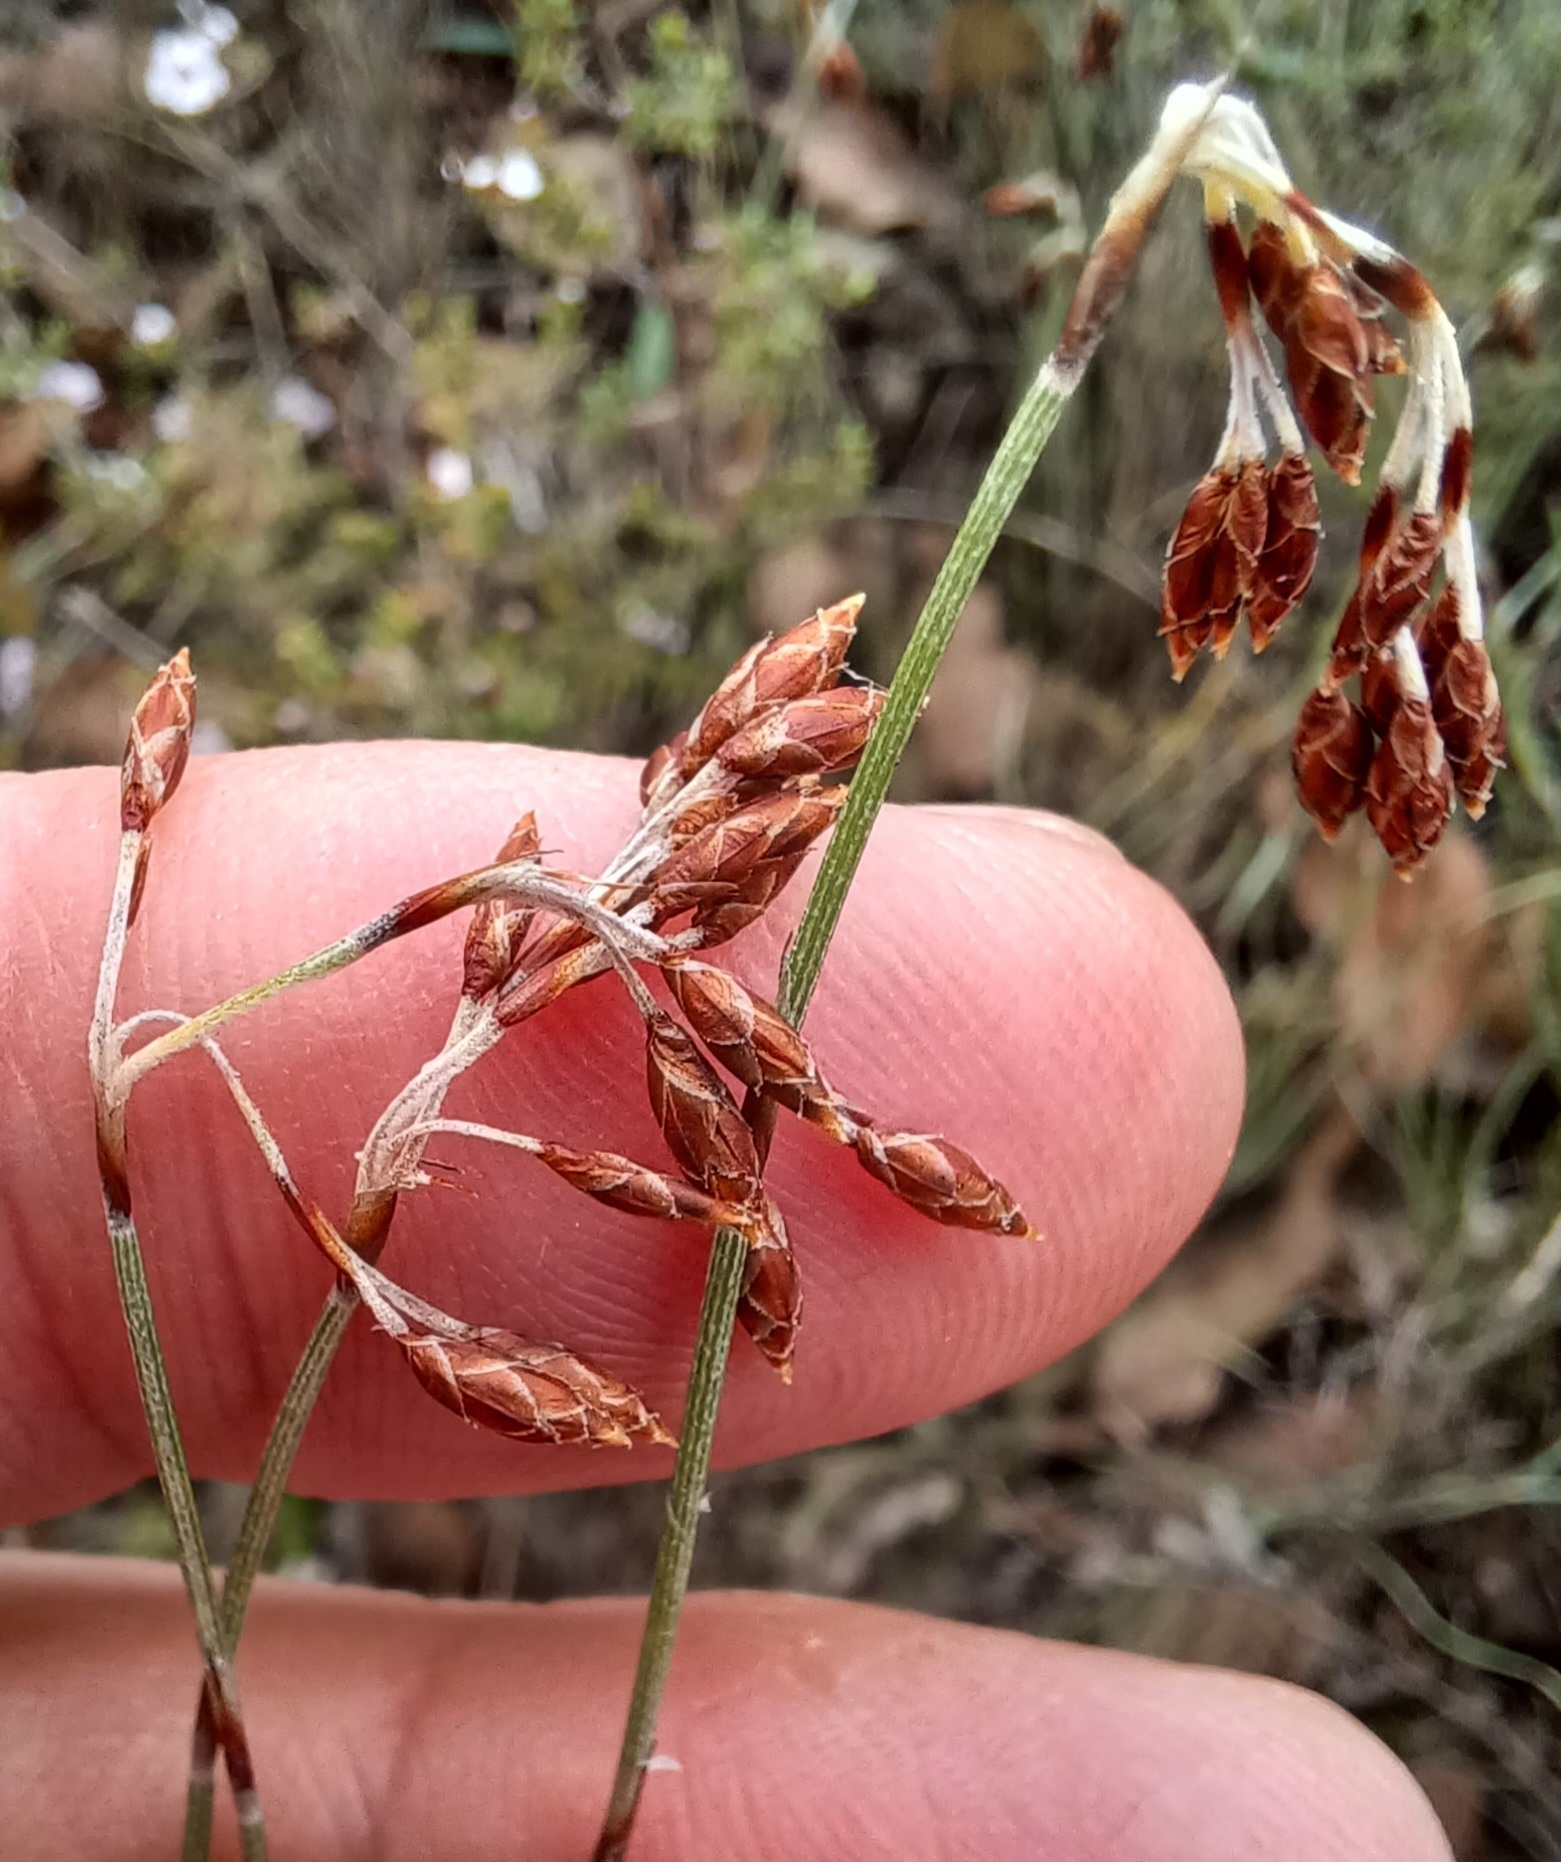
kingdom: Plantae
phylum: Tracheophyta
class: Liliopsida
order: Poales
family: Restionaceae
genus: Hypolaena
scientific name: Hypolaena fastigiata
